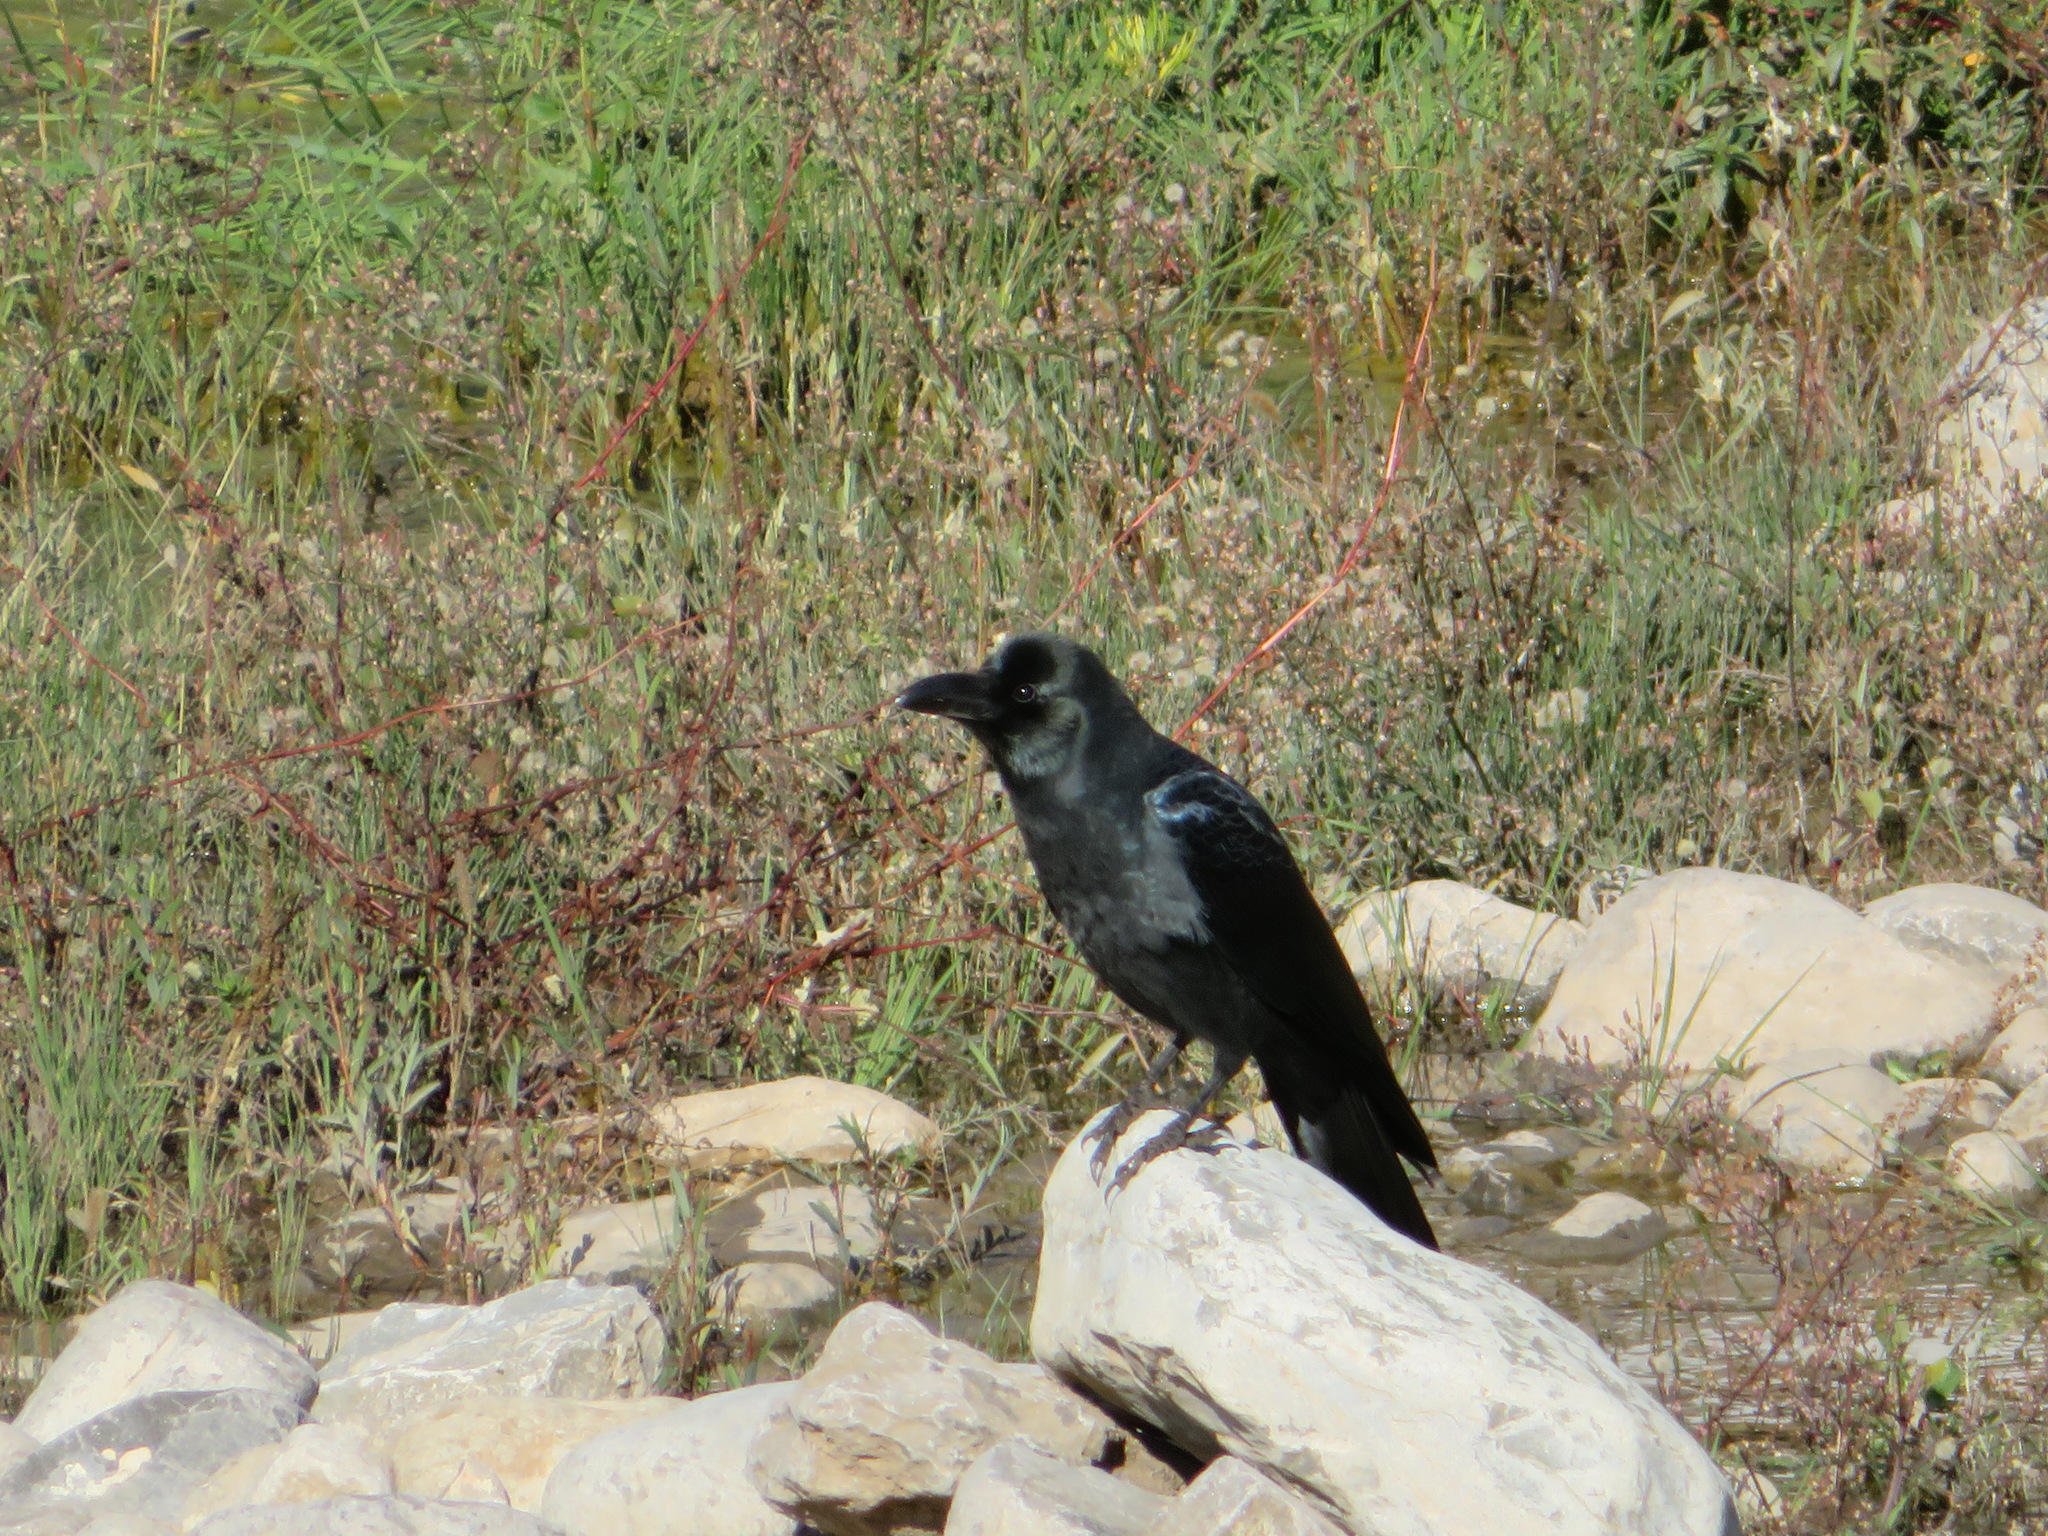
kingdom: Animalia
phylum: Chordata
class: Aves
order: Passeriformes
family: Corvidae
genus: Corvus
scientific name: Corvus macrorhynchos
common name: Large-billed crow
